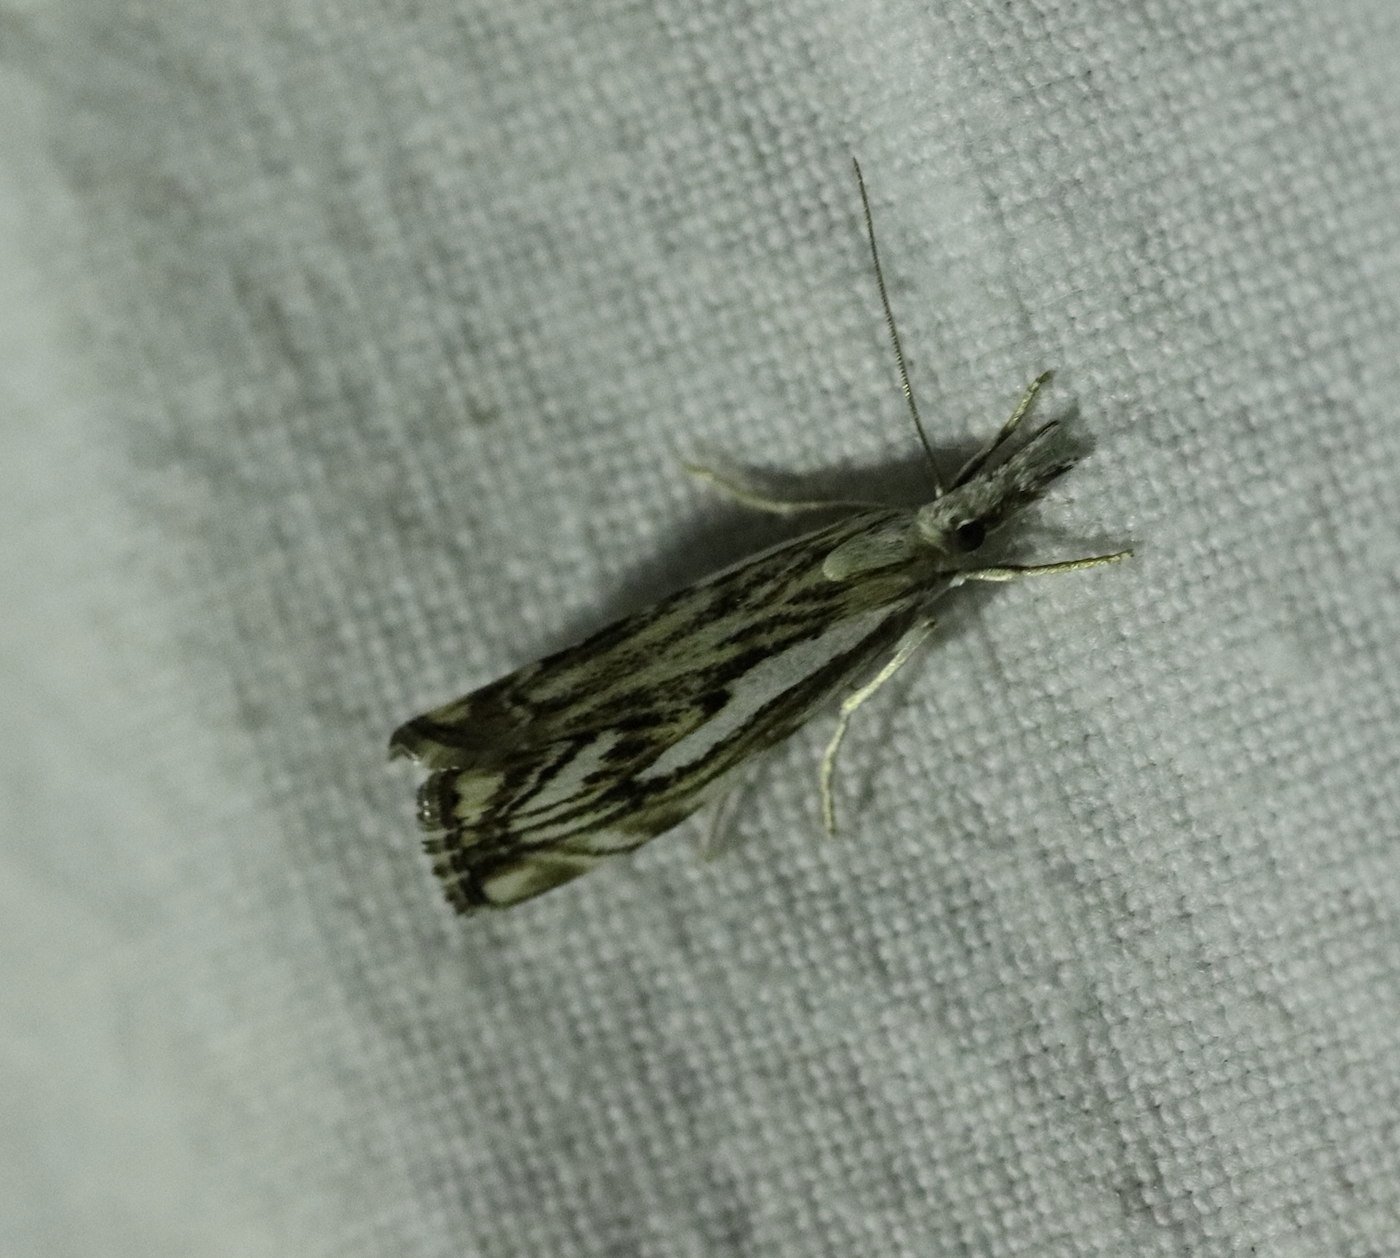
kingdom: Animalia
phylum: Arthropoda
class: Insecta
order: Lepidoptera
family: Crambidae
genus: Catoptria
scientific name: Catoptria falsella
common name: Chequered grass-veneer
